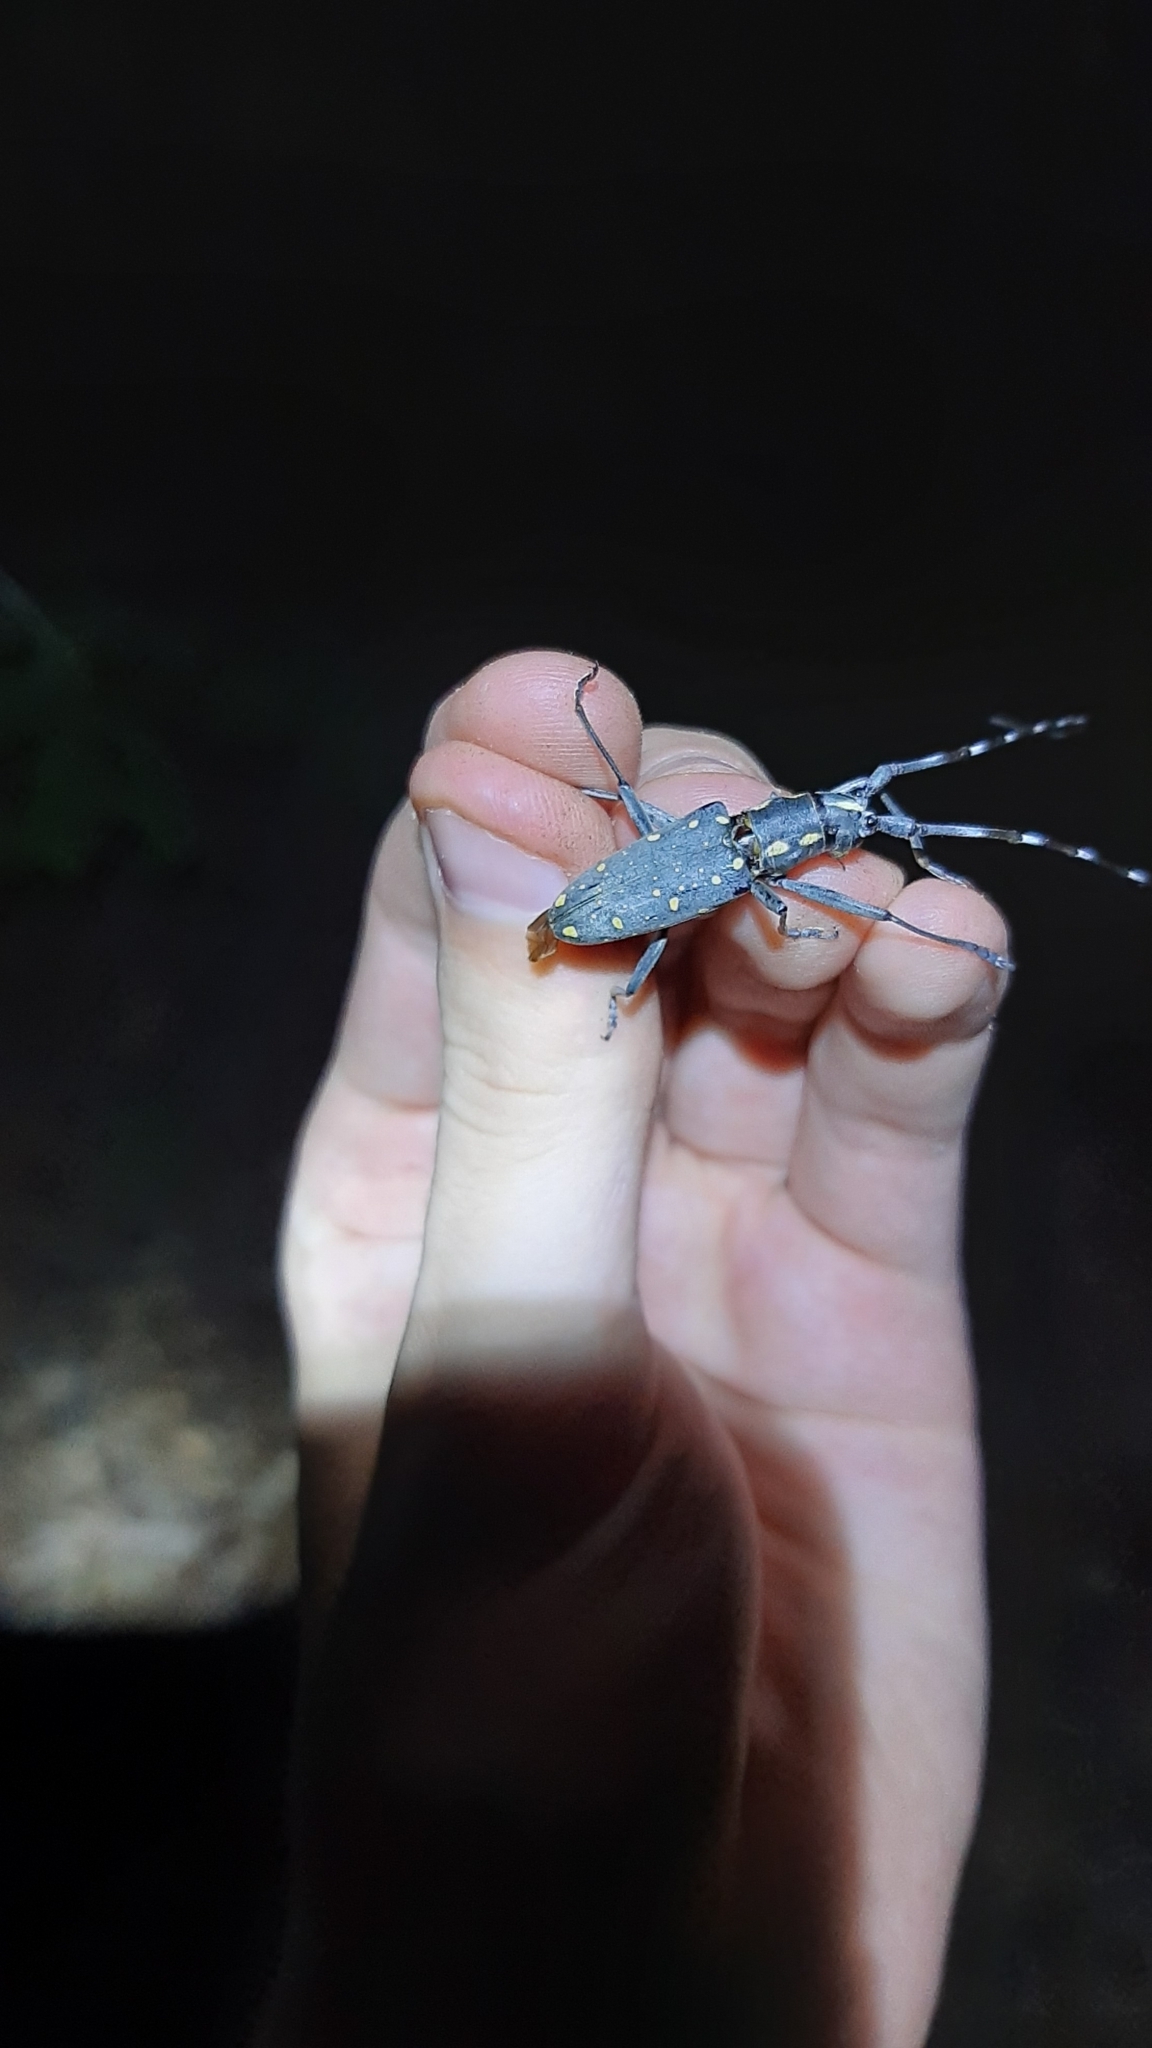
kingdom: Animalia
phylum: Arthropoda
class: Insecta
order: Coleoptera
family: Cerambycidae
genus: Psacothea
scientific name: Psacothea hilaris
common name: Yellow-spotted longicorn beetle
